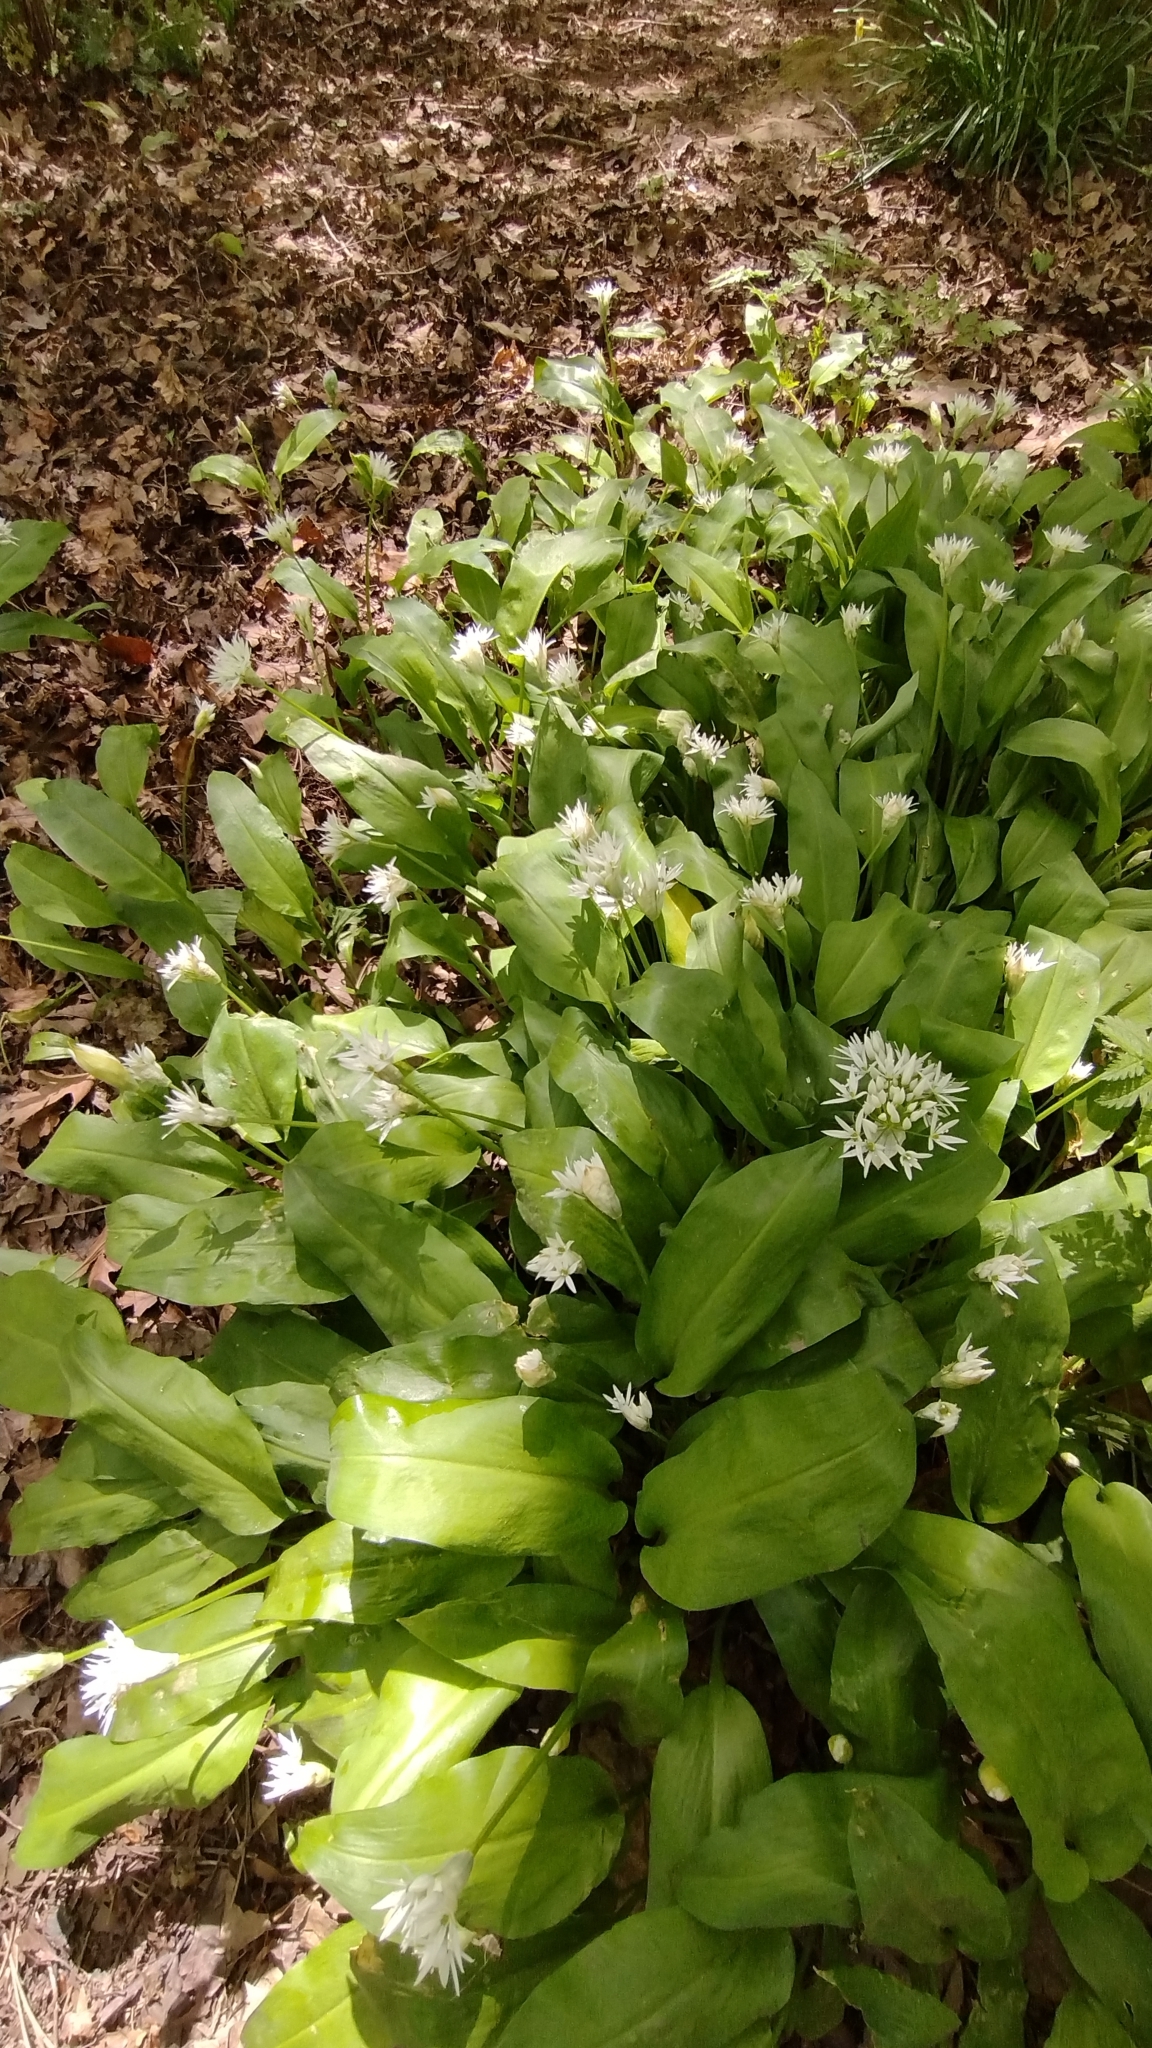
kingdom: Plantae
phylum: Tracheophyta
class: Liliopsida
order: Asparagales
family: Amaryllidaceae
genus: Allium
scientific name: Allium ursinum
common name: Ramsons
